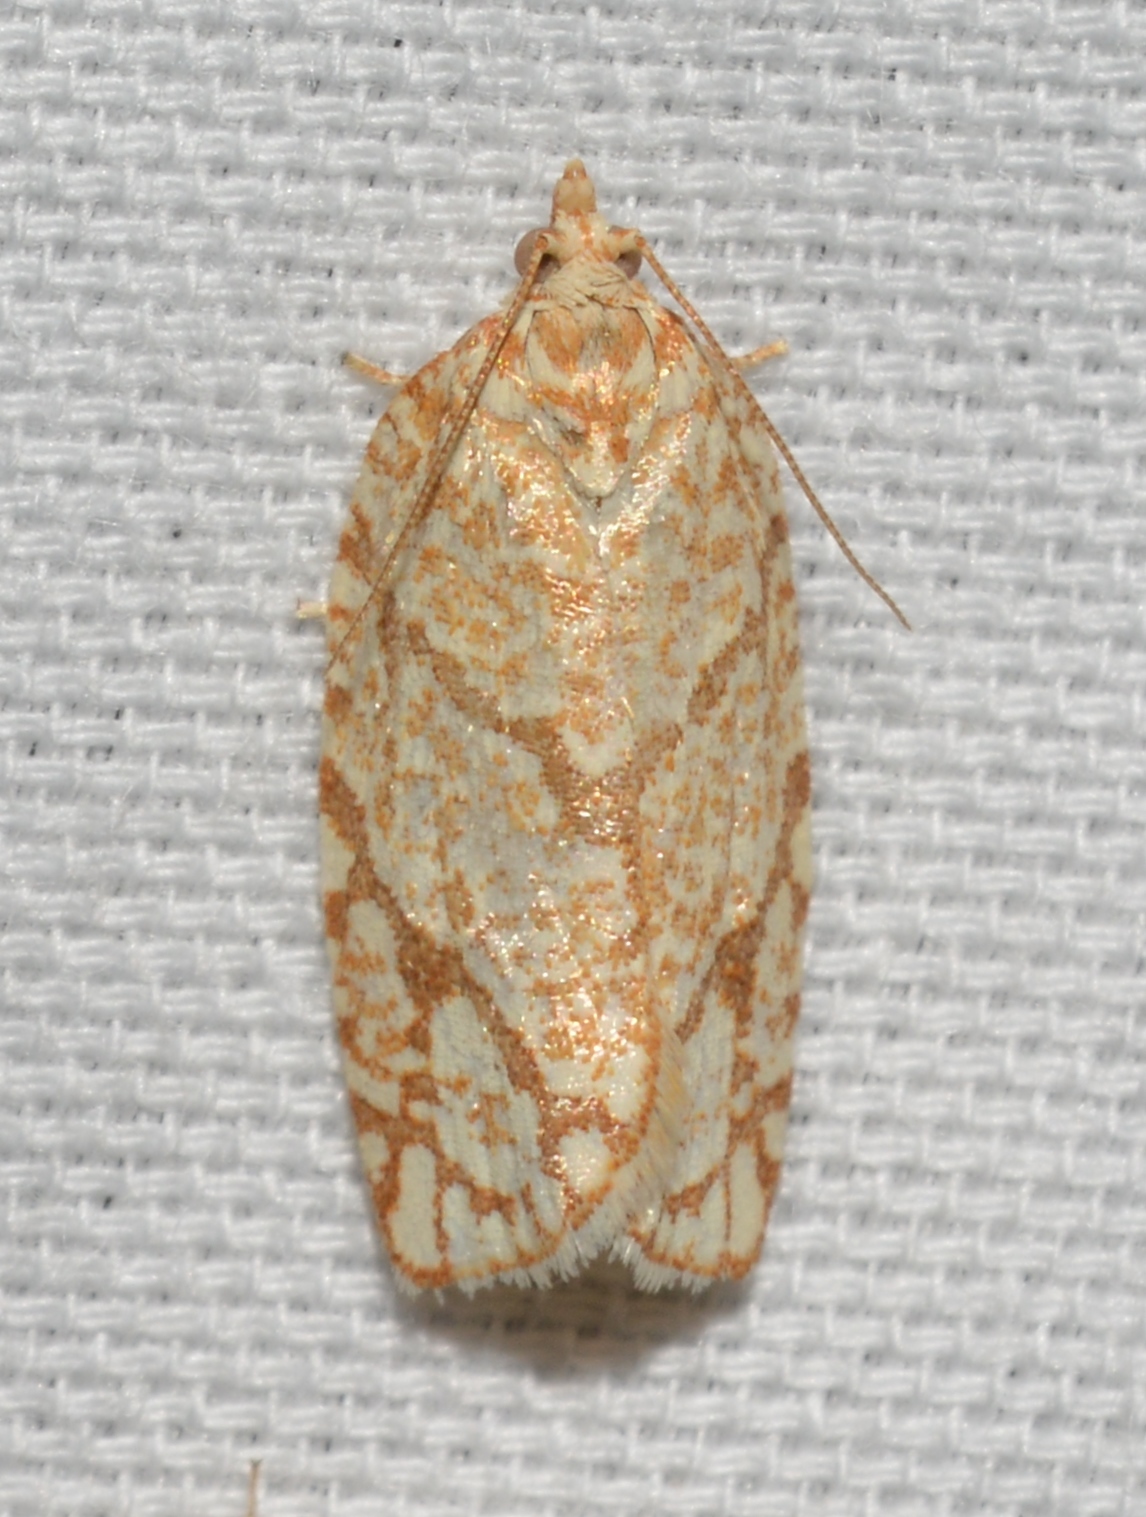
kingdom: Animalia
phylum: Arthropoda
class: Insecta
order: Lepidoptera
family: Tortricidae
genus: Argyrotaenia
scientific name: Argyrotaenia quercifoliana
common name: Yellow-winged oak leafroller moth
